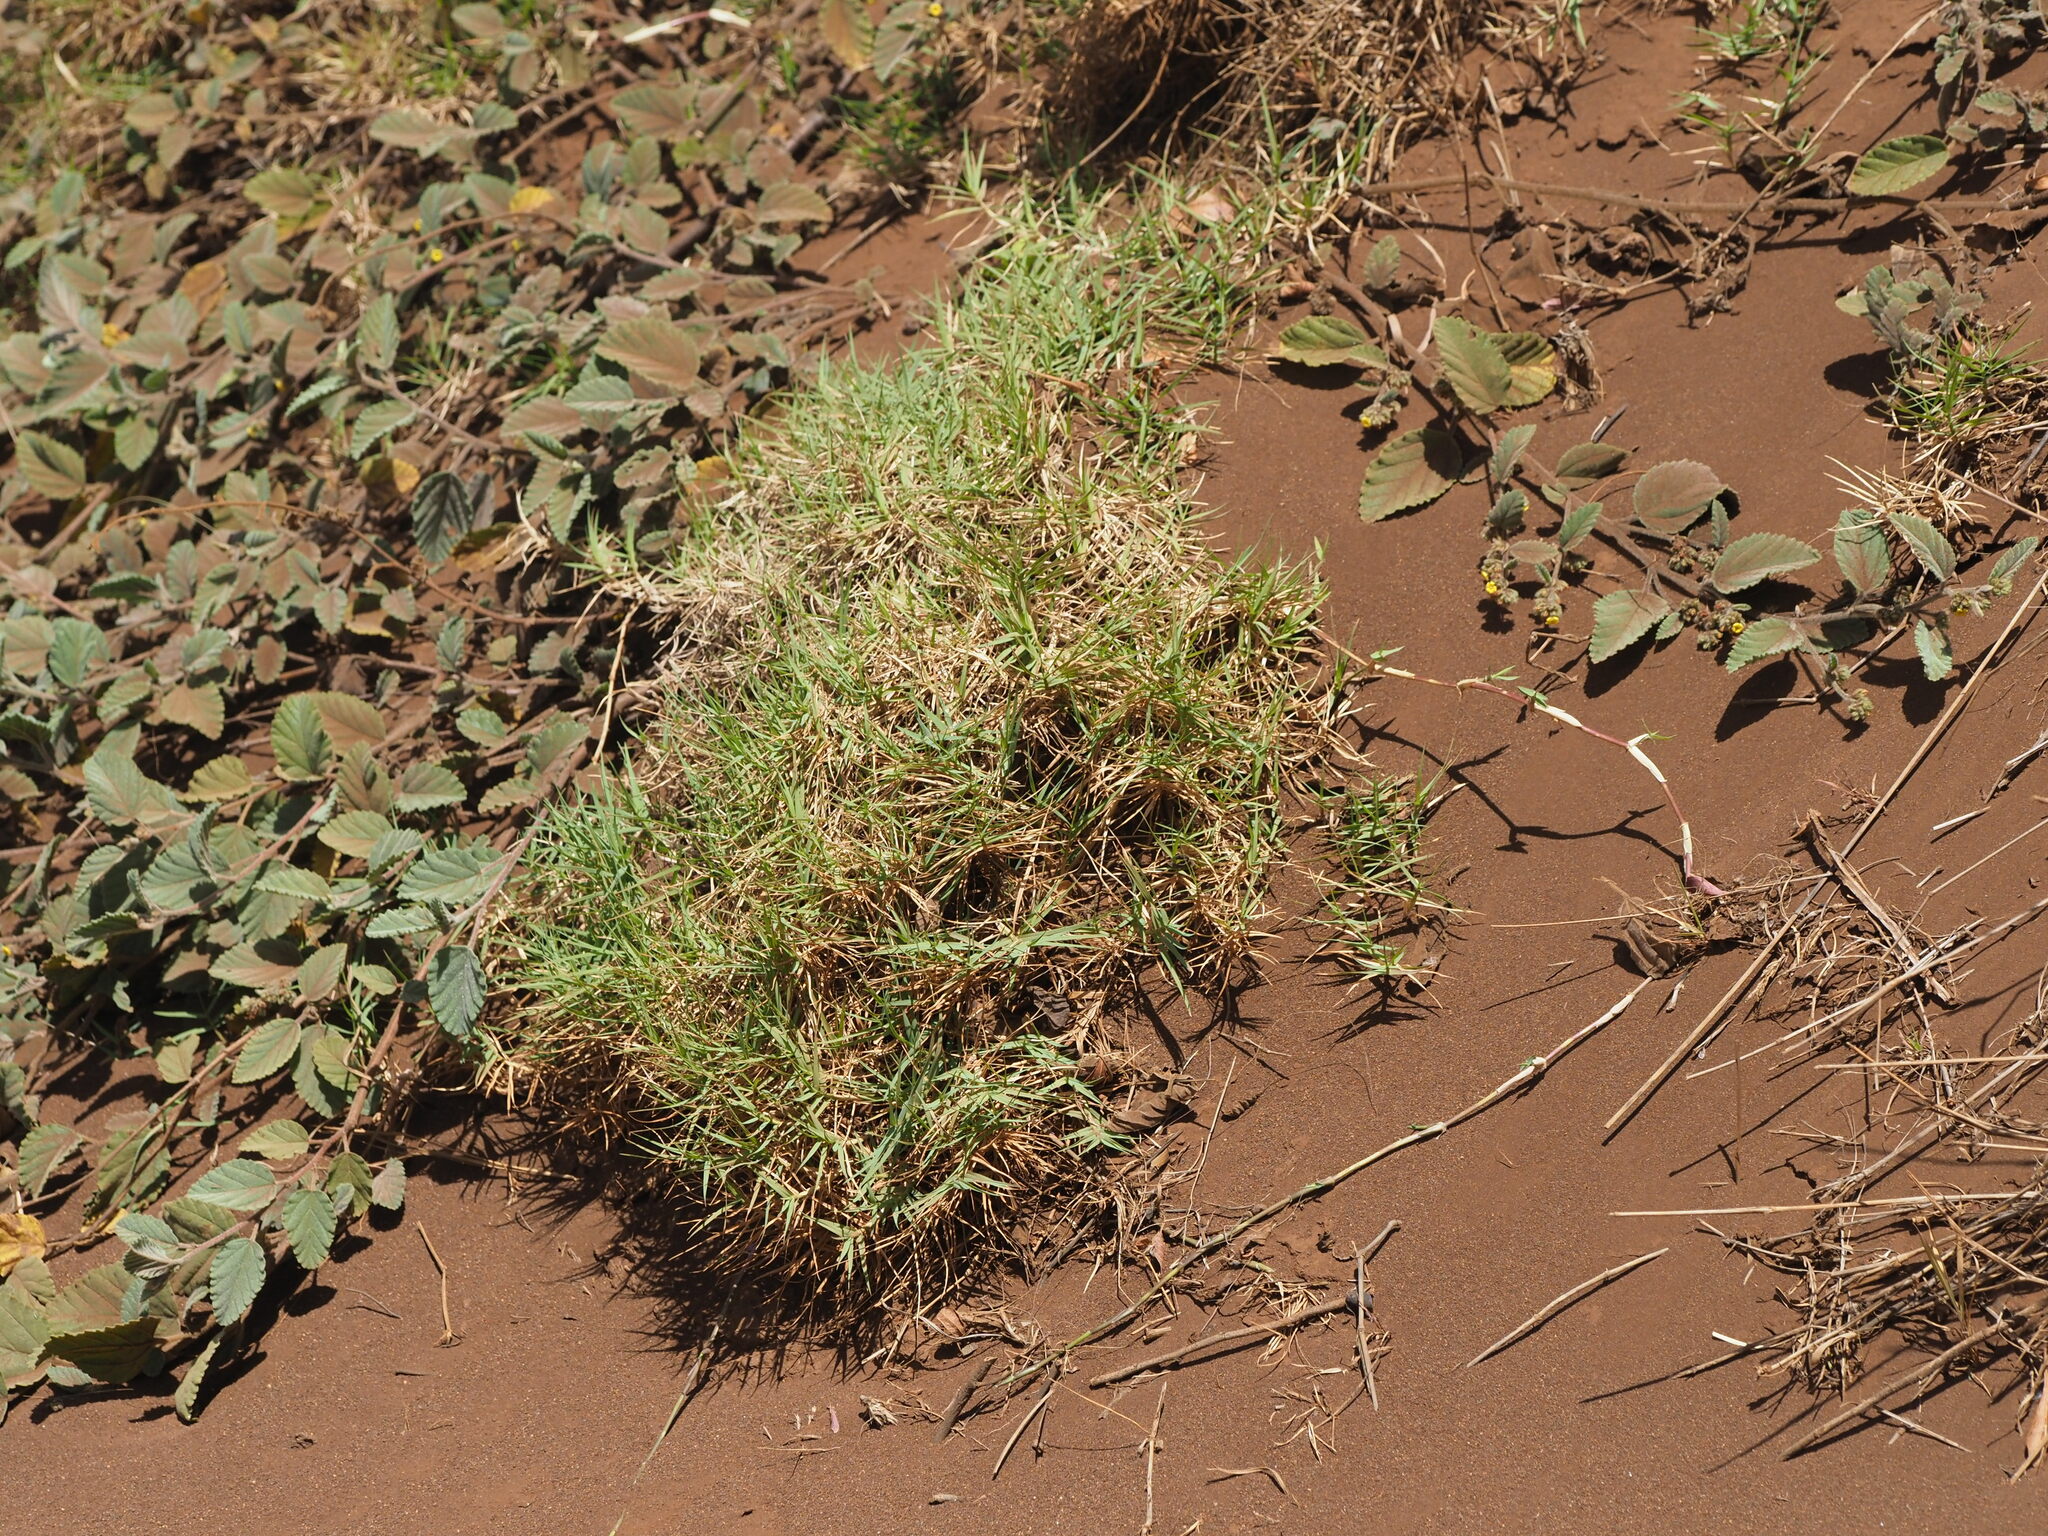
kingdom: Plantae
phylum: Tracheophyta
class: Liliopsida
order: Poales
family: Poaceae
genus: Cynodon
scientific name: Cynodon dactylon
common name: Bermuda grass
